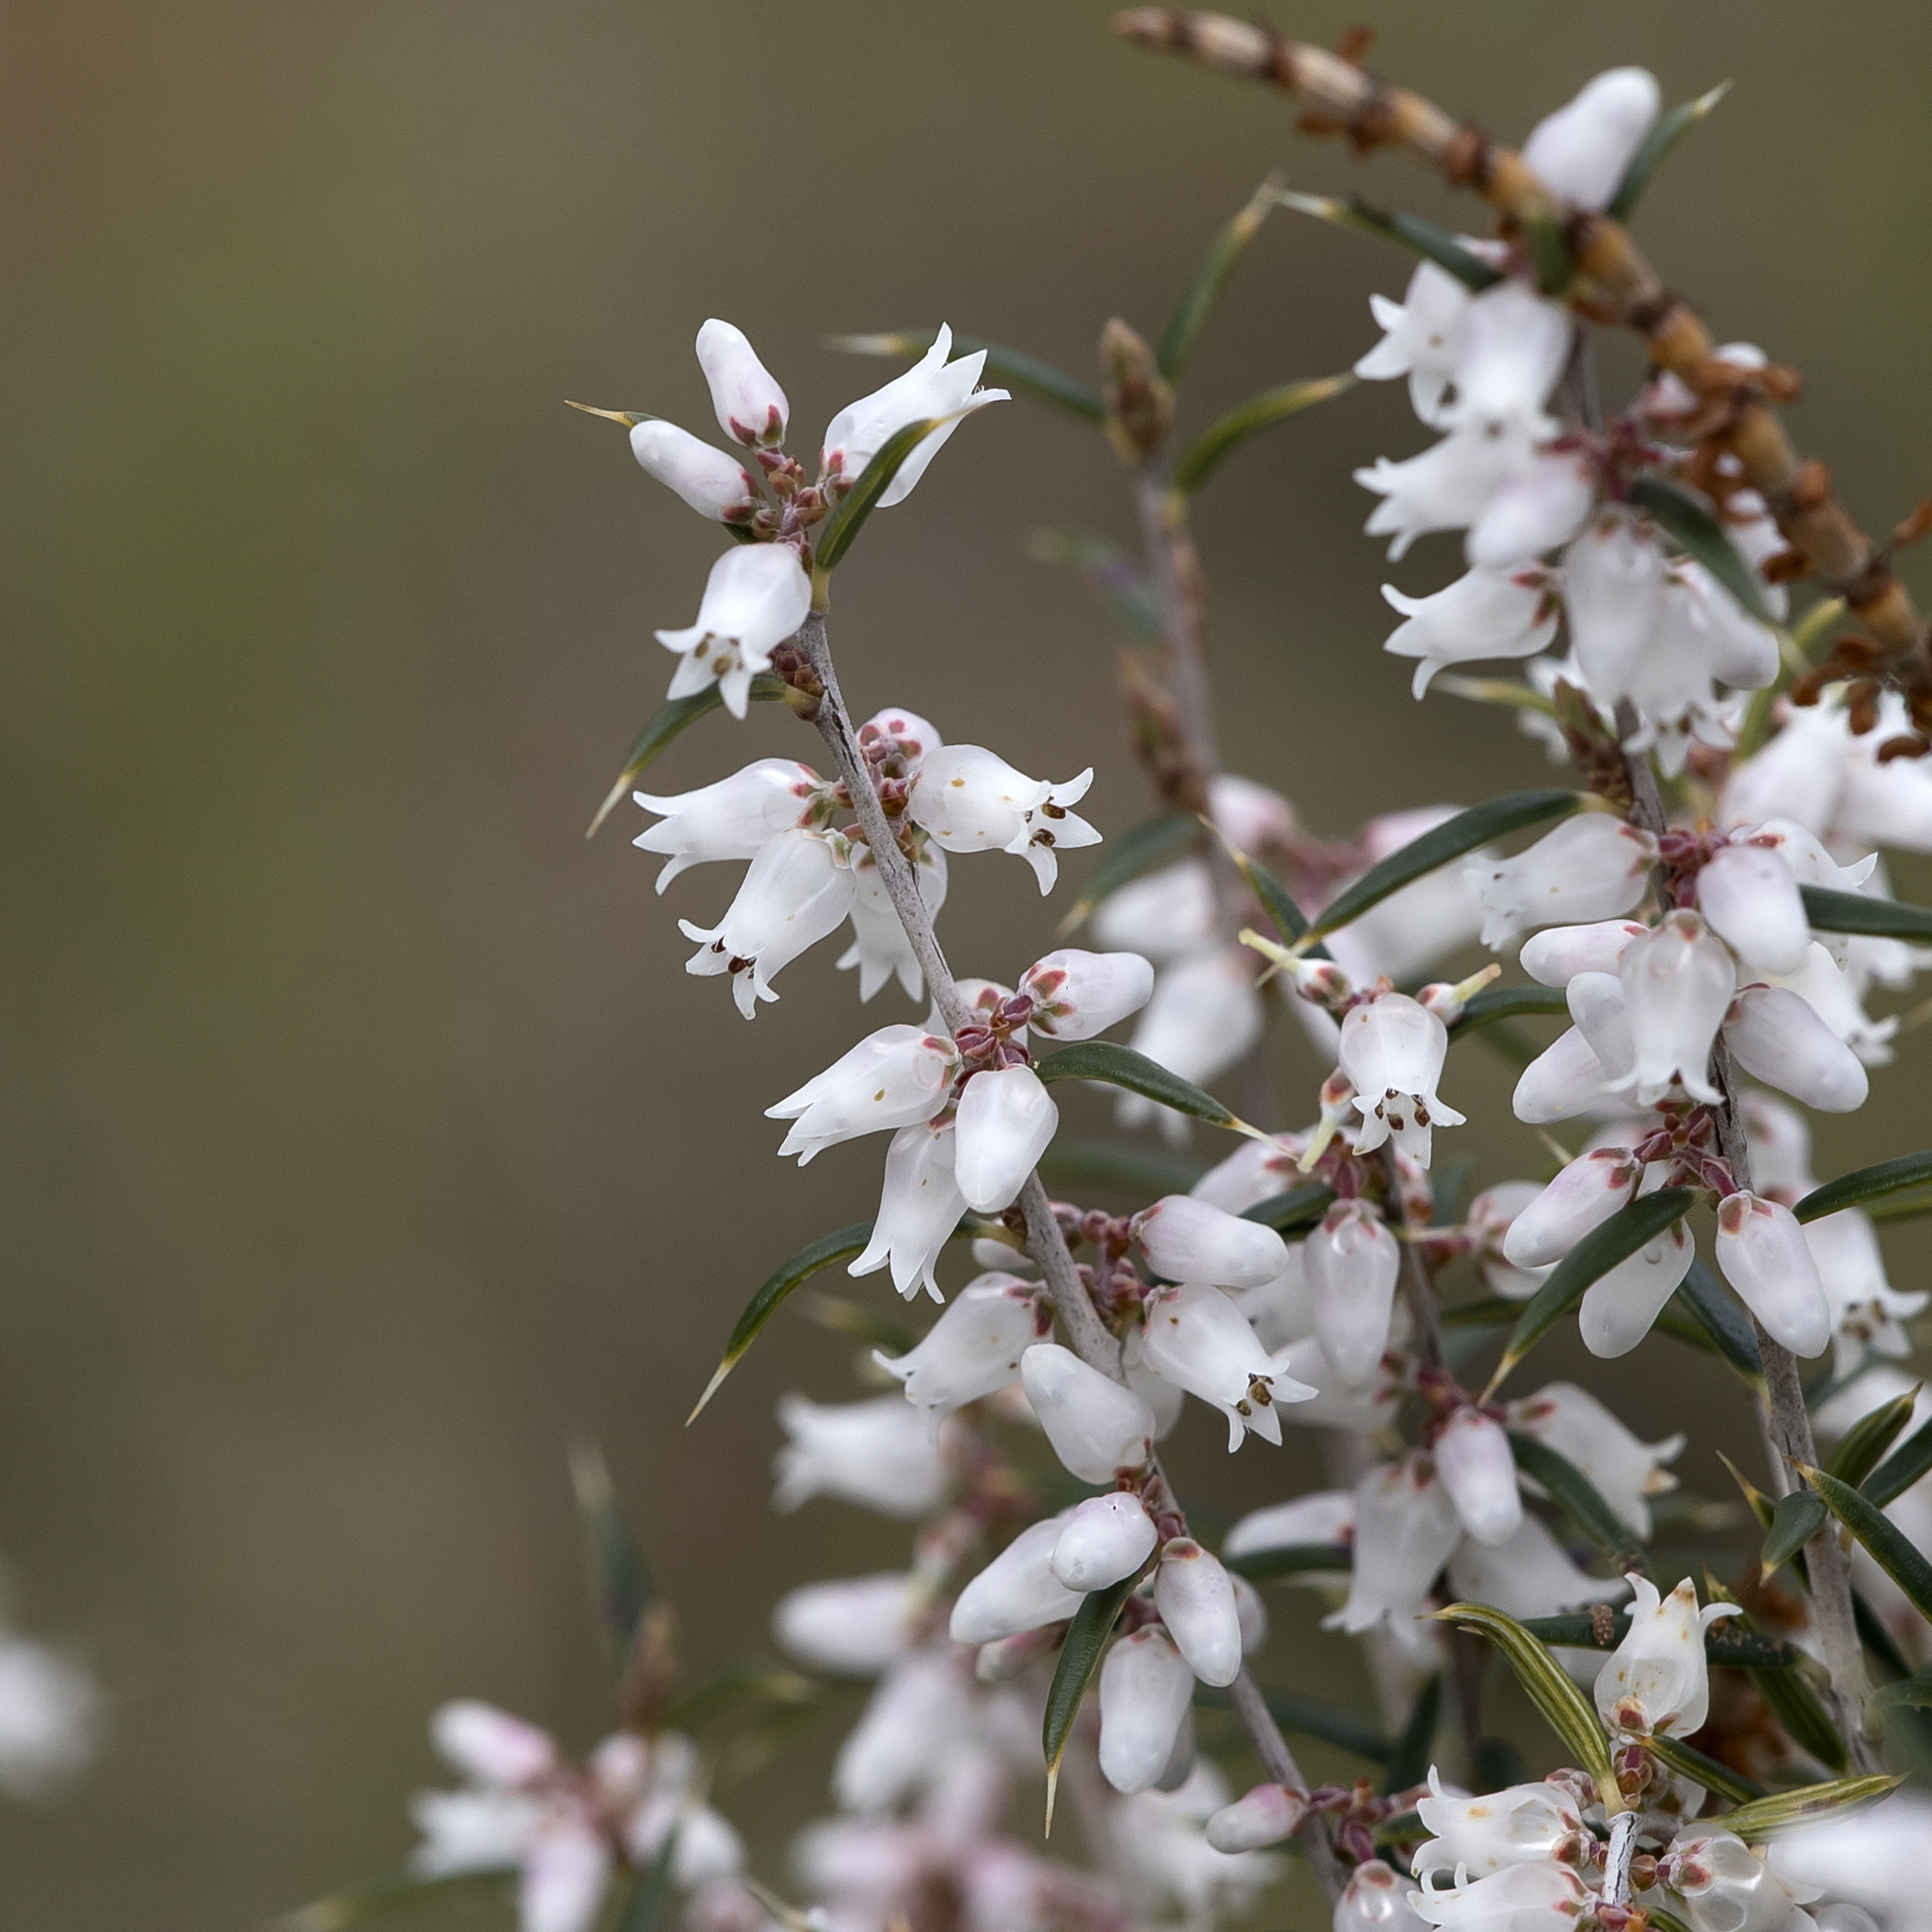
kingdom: Plantae
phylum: Tracheophyta
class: Magnoliopsida
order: Ericales
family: Ericaceae
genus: Lissanthe
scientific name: Lissanthe strigosa
